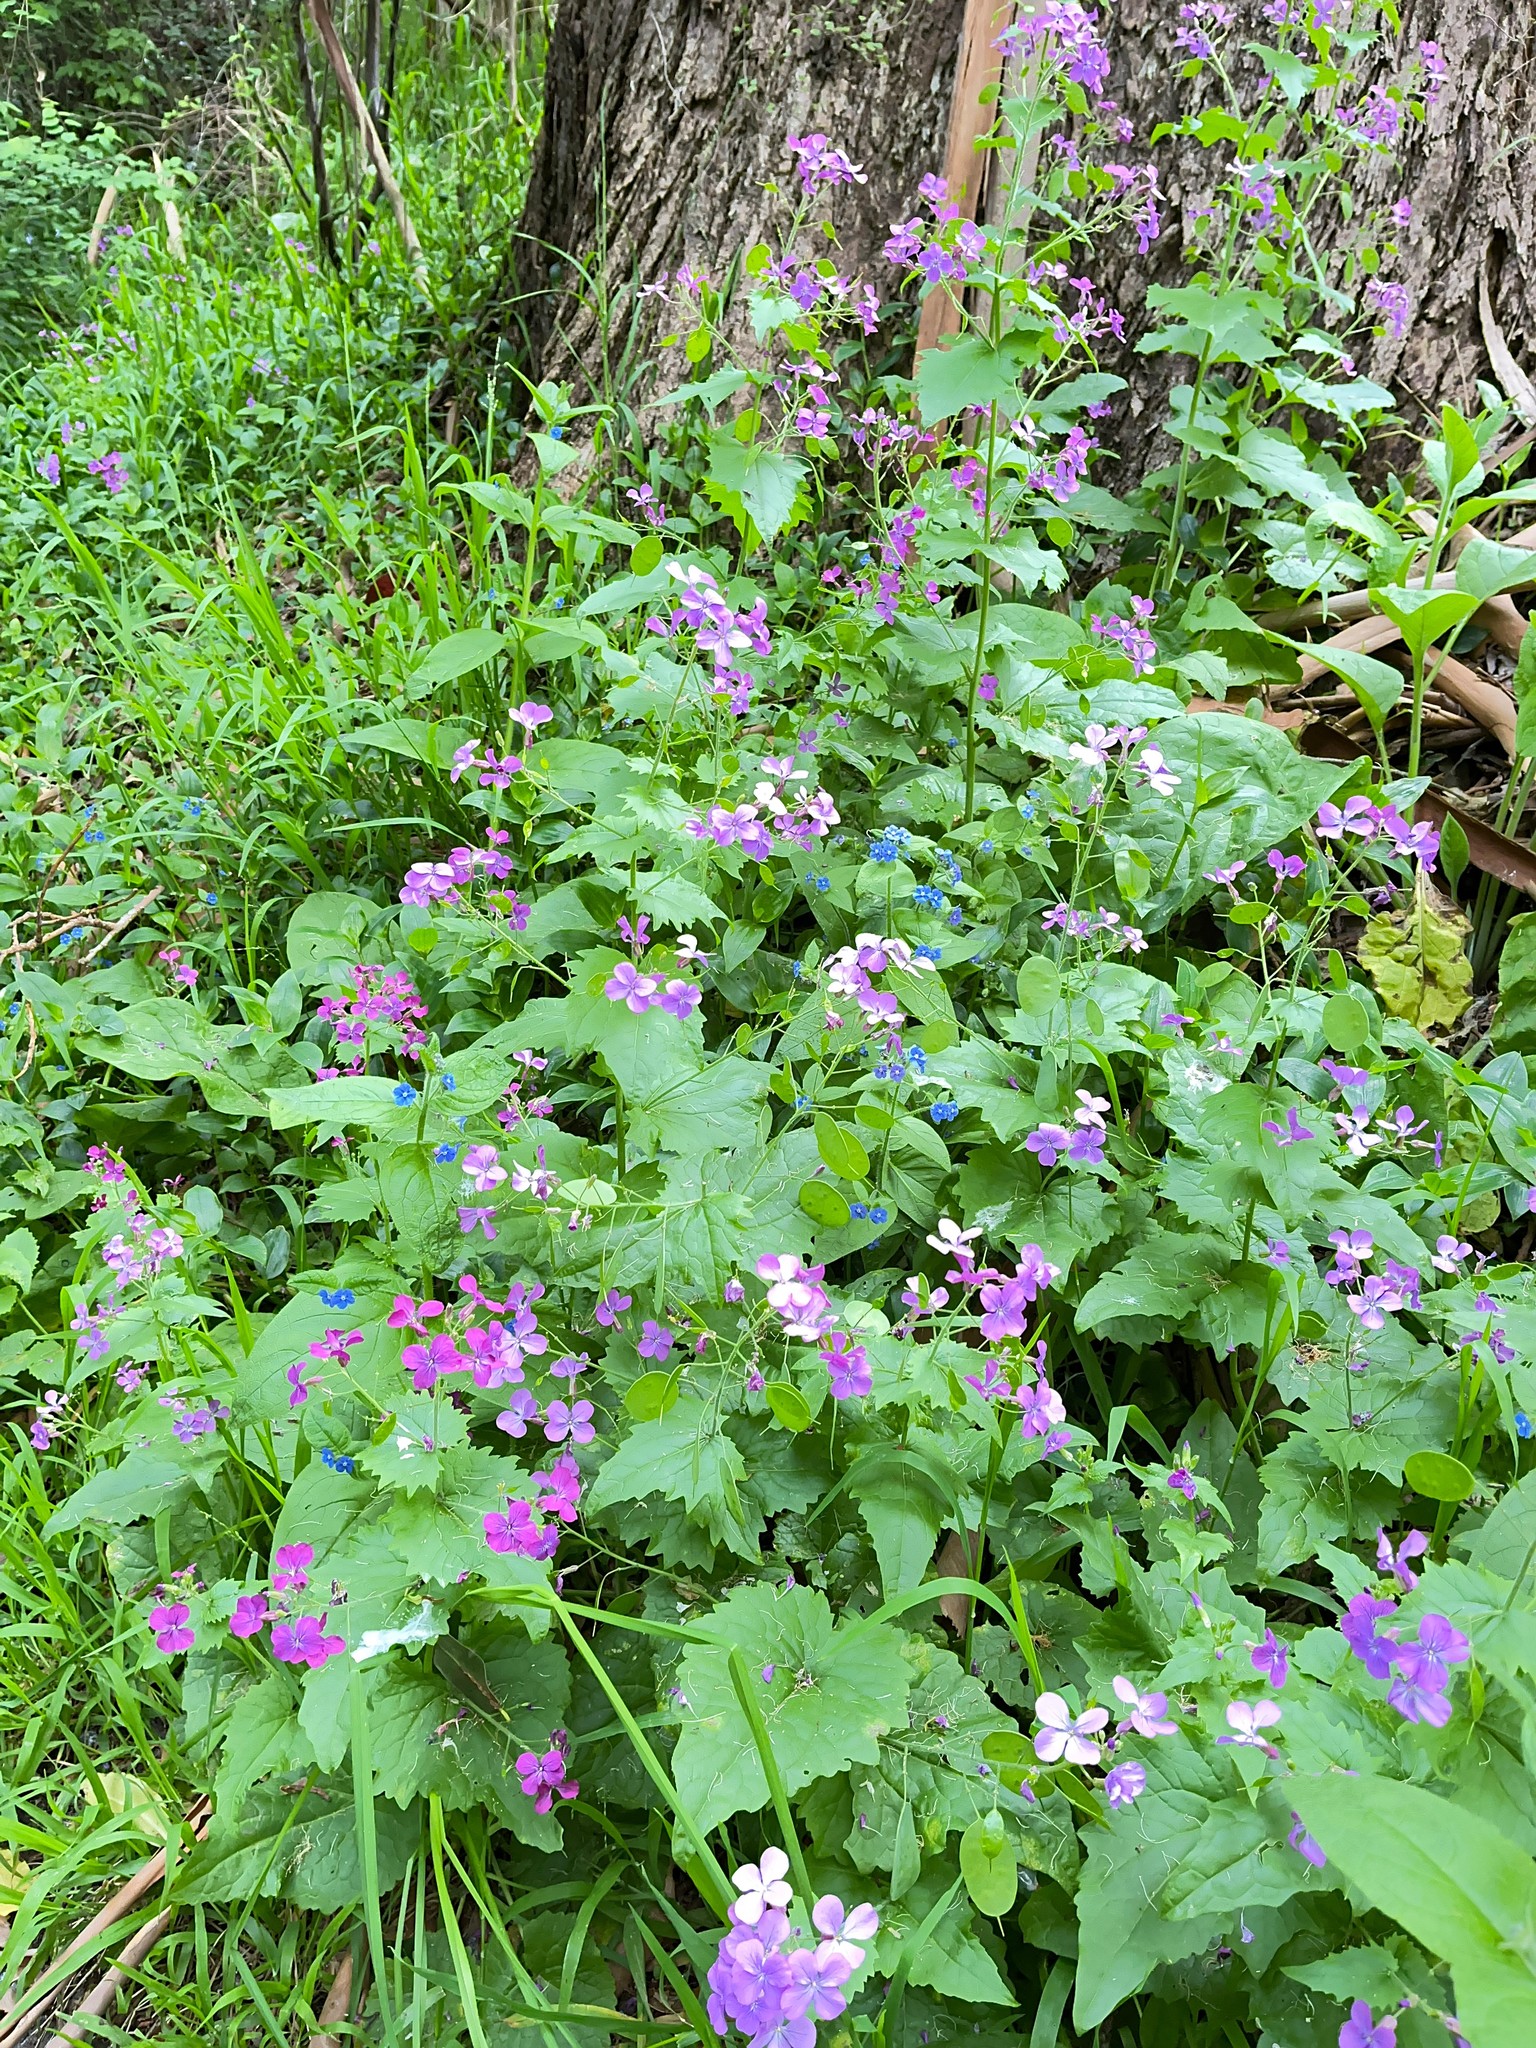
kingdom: Plantae
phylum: Tracheophyta
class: Magnoliopsida
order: Brassicales
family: Brassicaceae
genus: Lunaria
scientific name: Lunaria annua
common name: Honesty
